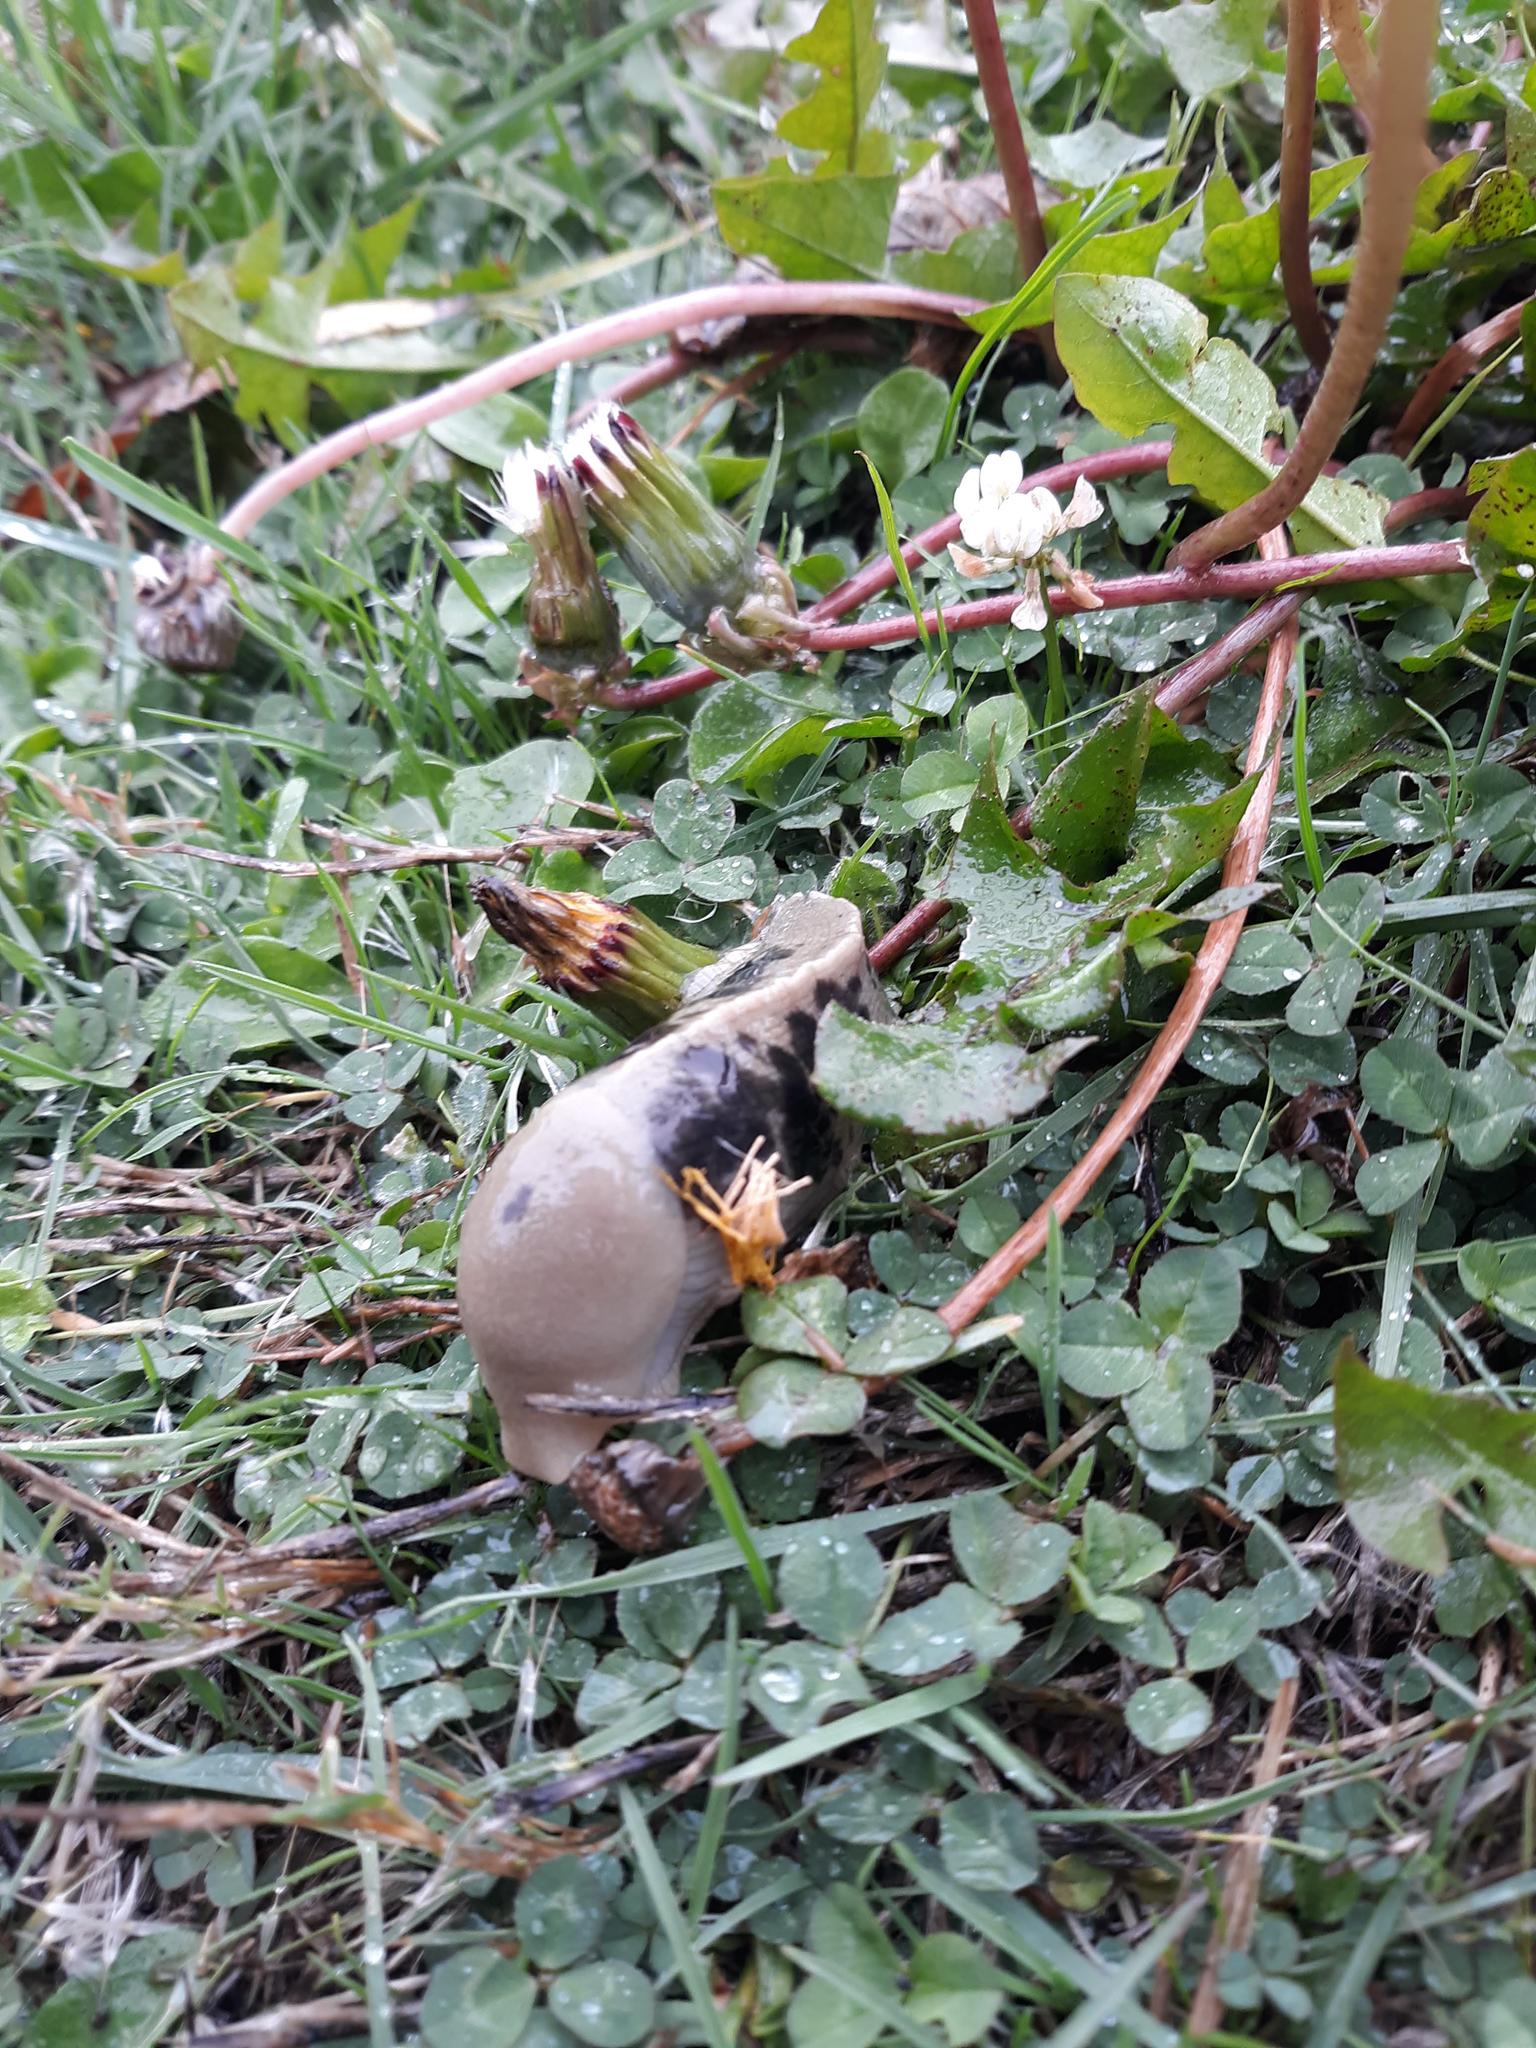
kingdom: Animalia
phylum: Mollusca
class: Gastropoda
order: Stylommatophora
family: Ariolimacidae
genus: Ariolimax
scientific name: Ariolimax columbianus
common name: Pacific banana slug
